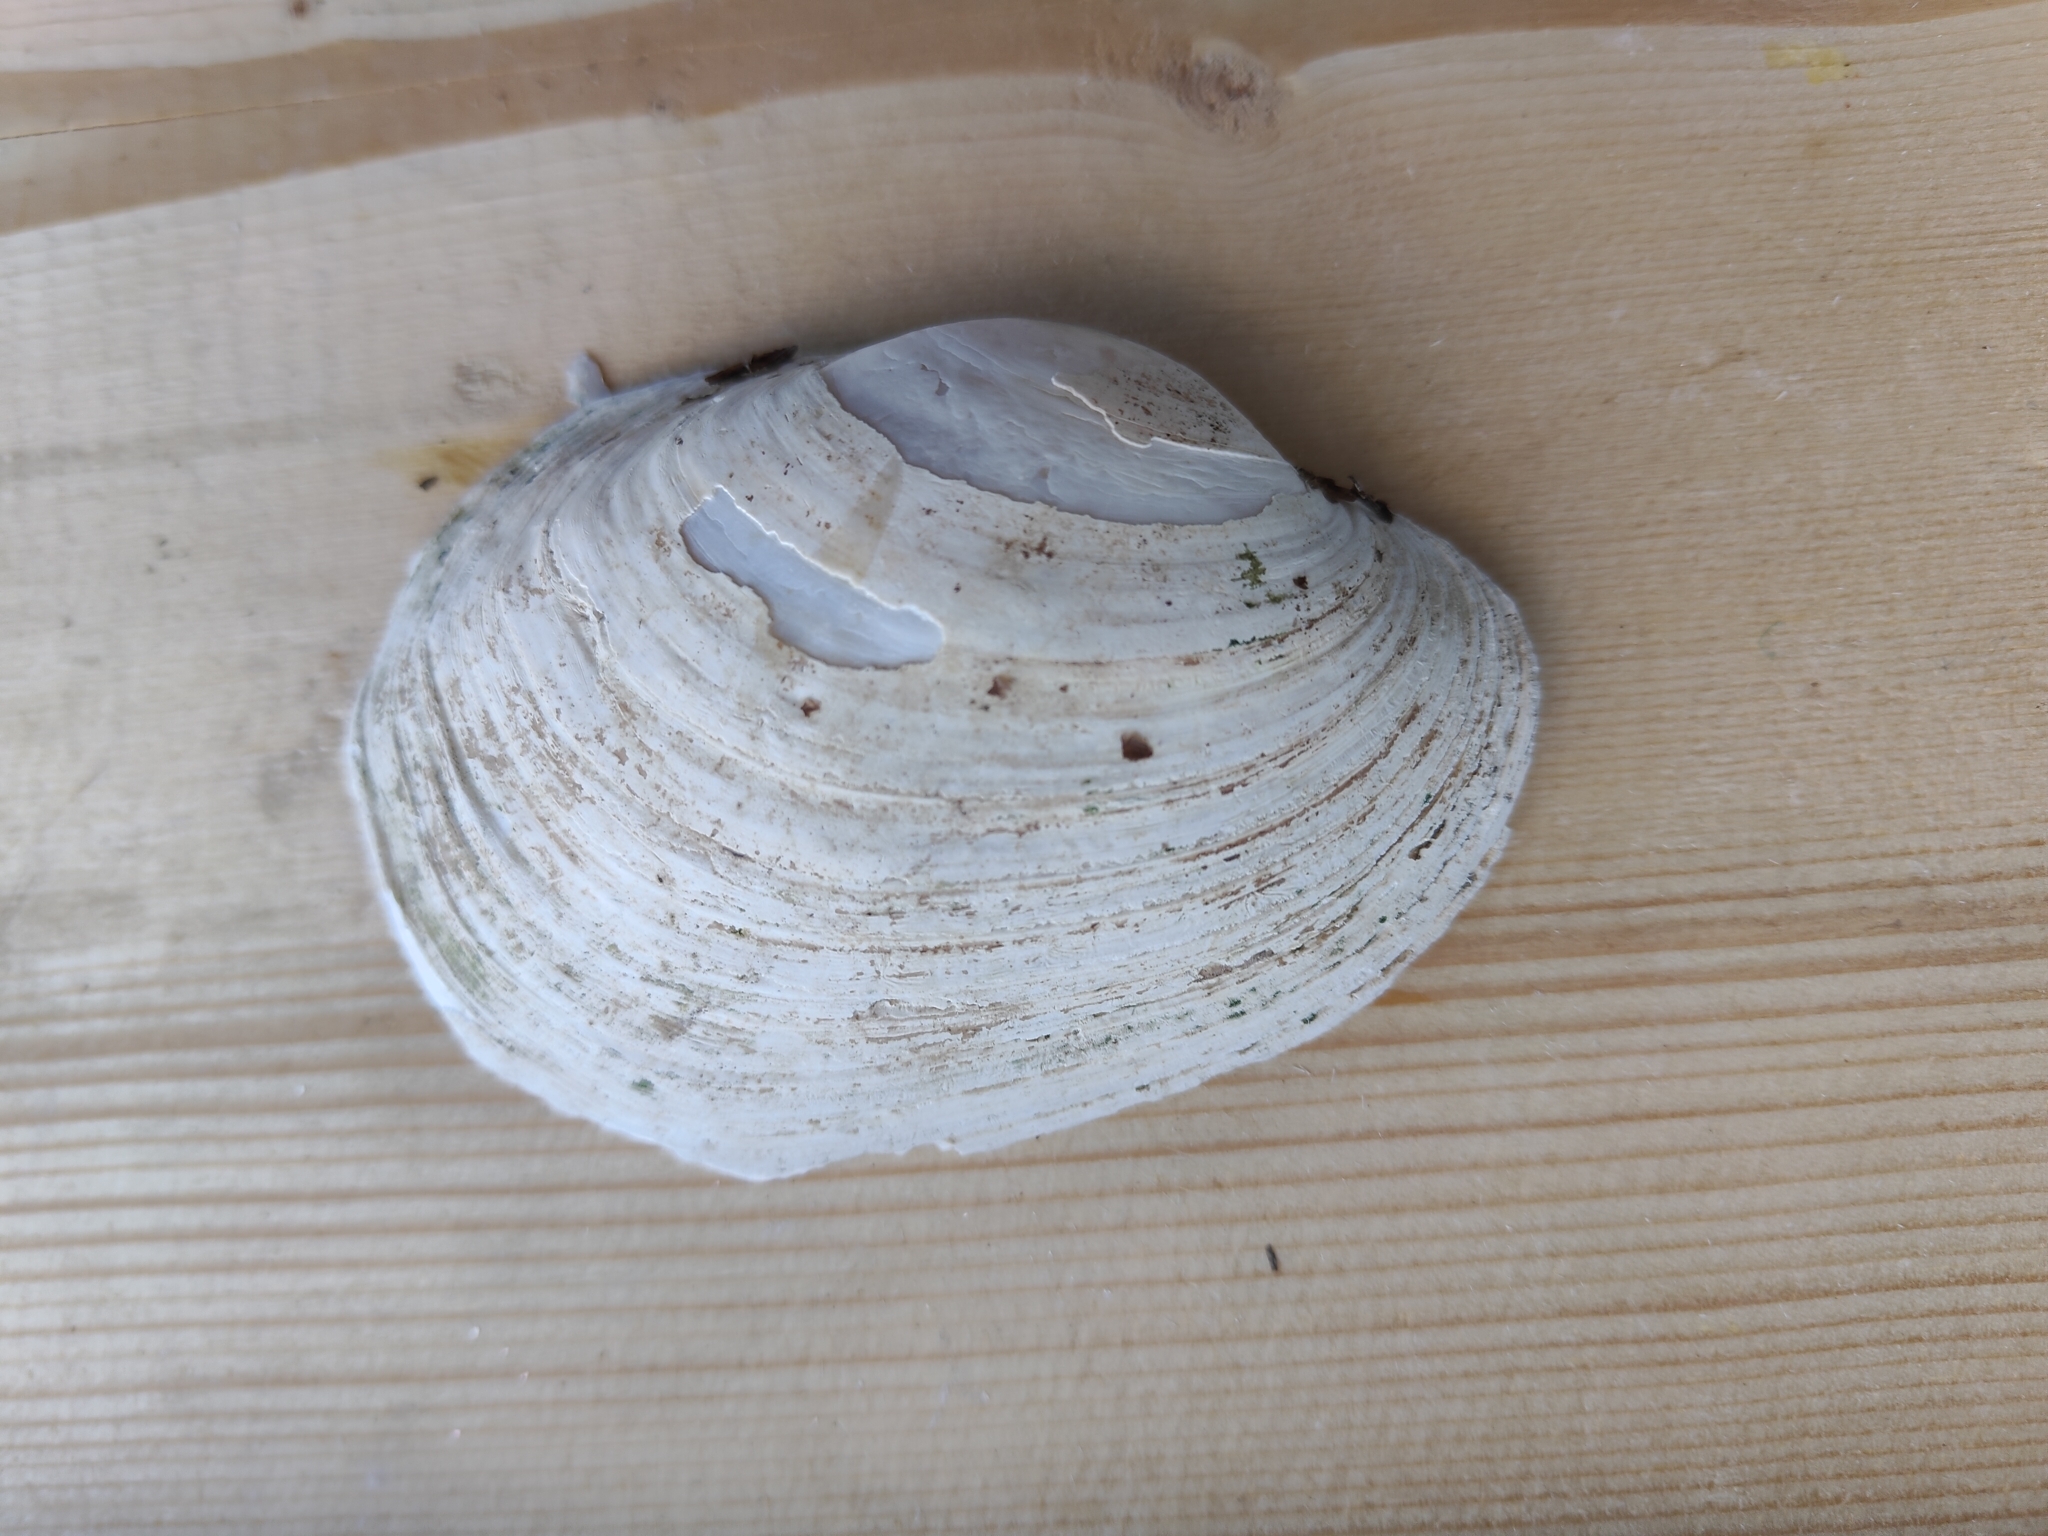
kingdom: Animalia
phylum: Mollusca
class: Bivalvia
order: Unionida
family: Unionidae
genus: Lampsilis
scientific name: Lampsilis cardium
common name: Plain pocketbook
